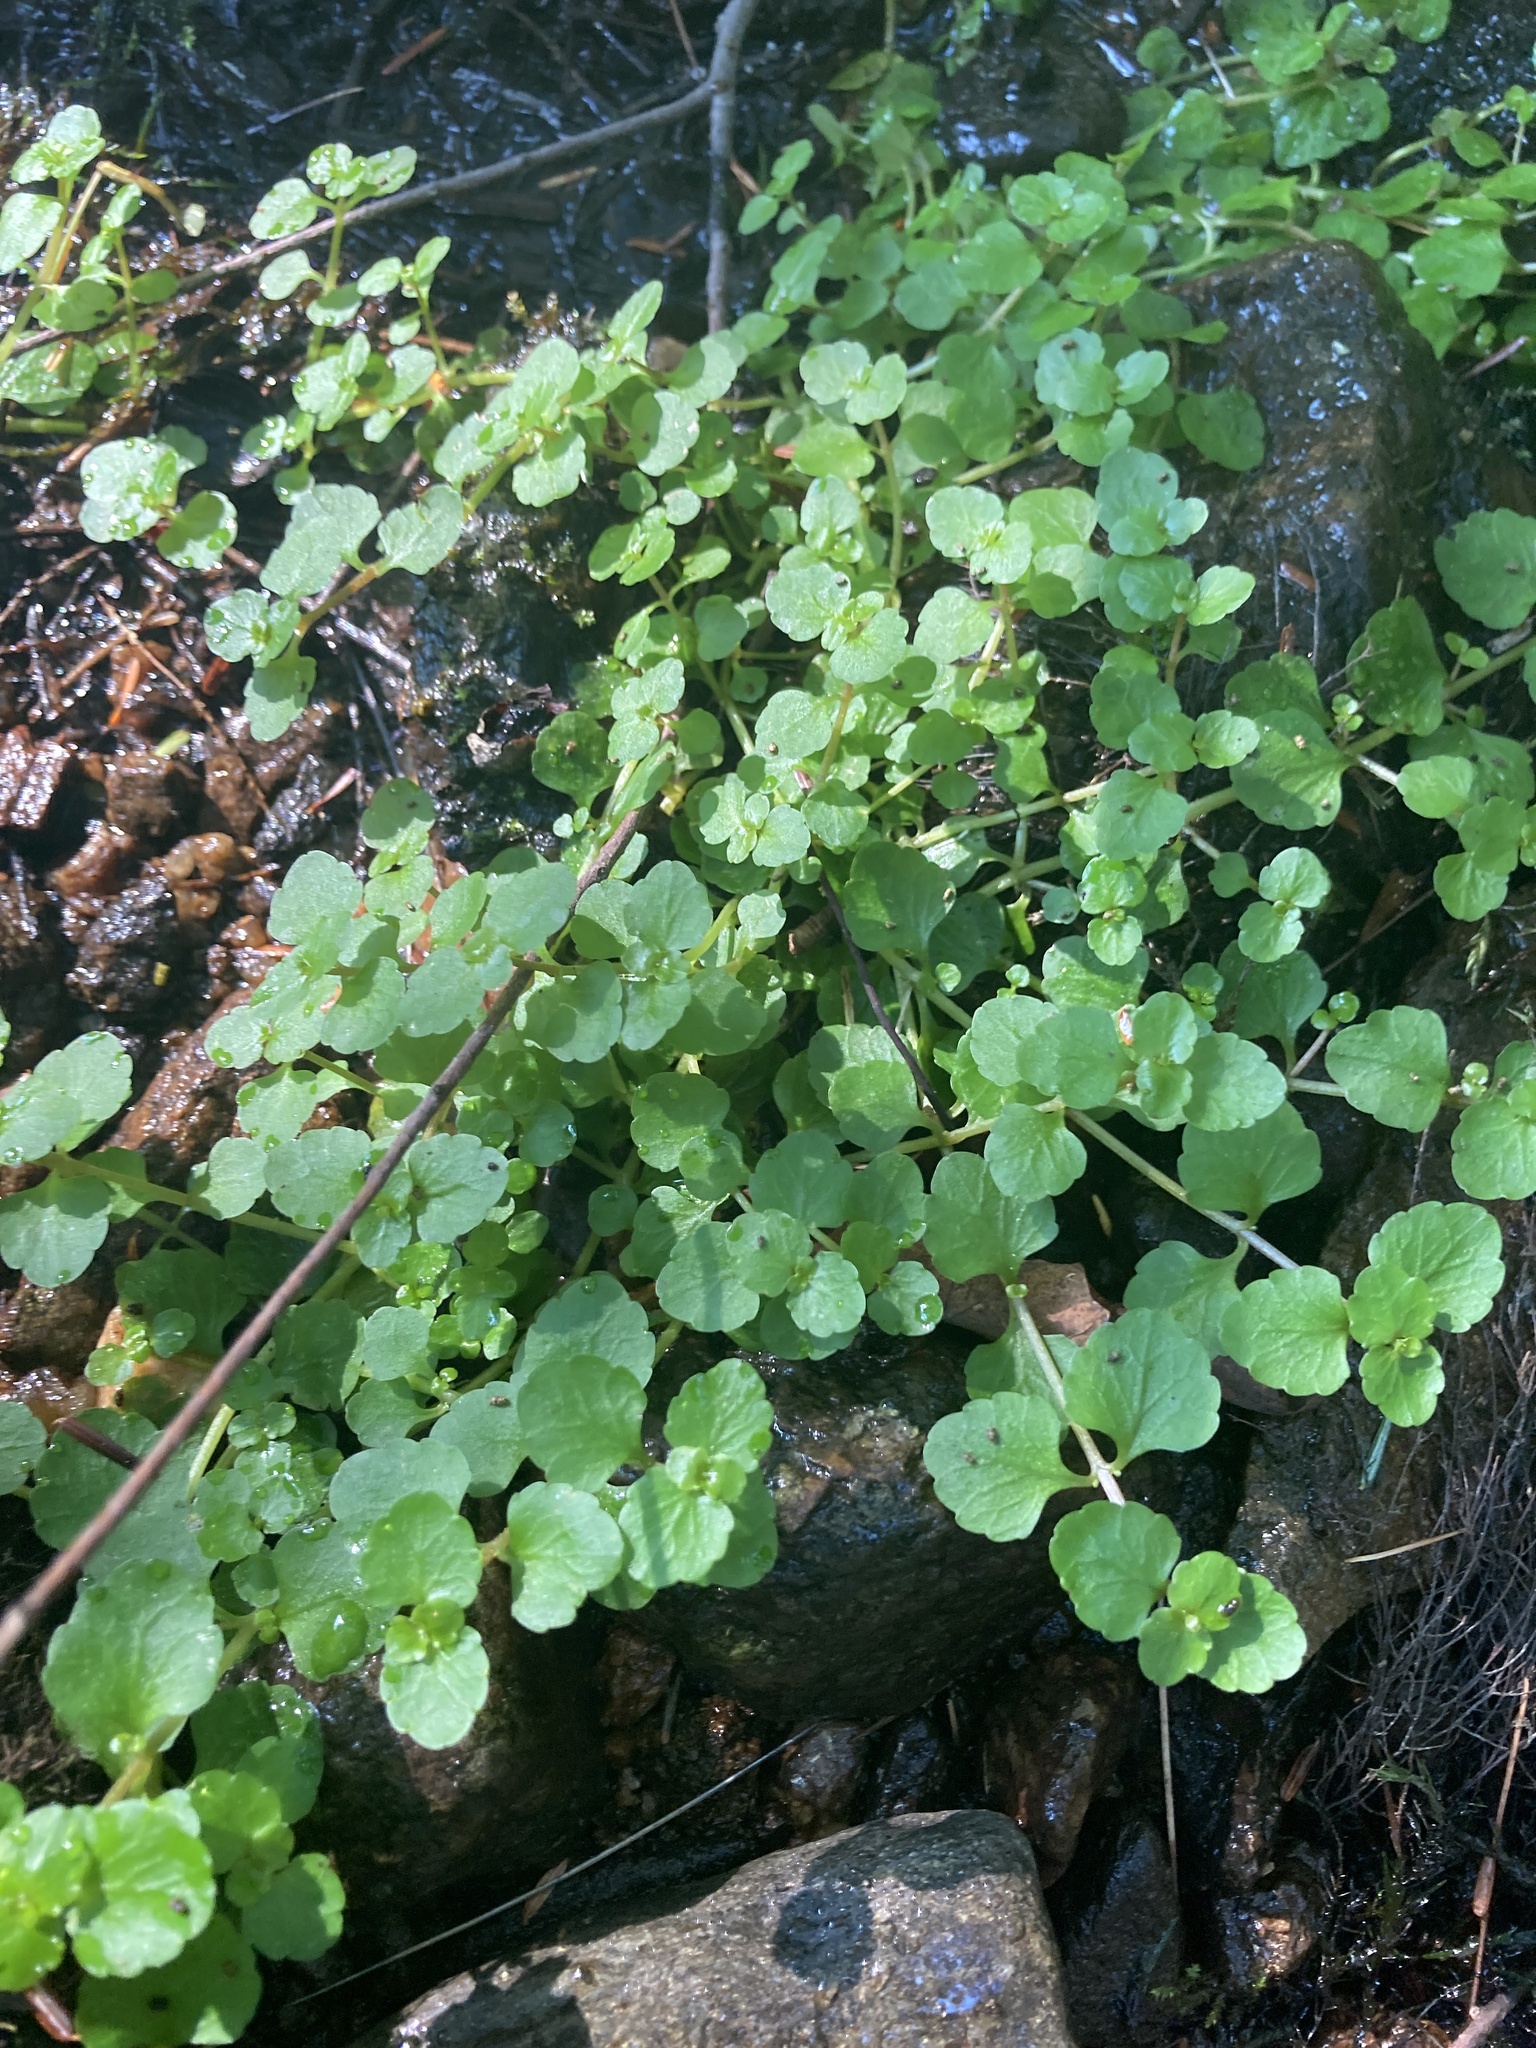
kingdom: Plantae
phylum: Tracheophyta
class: Magnoliopsida
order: Saxifragales
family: Saxifragaceae
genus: Chrysosplenium
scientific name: Chrysosplenium americanum
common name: American golden-saxifrage
